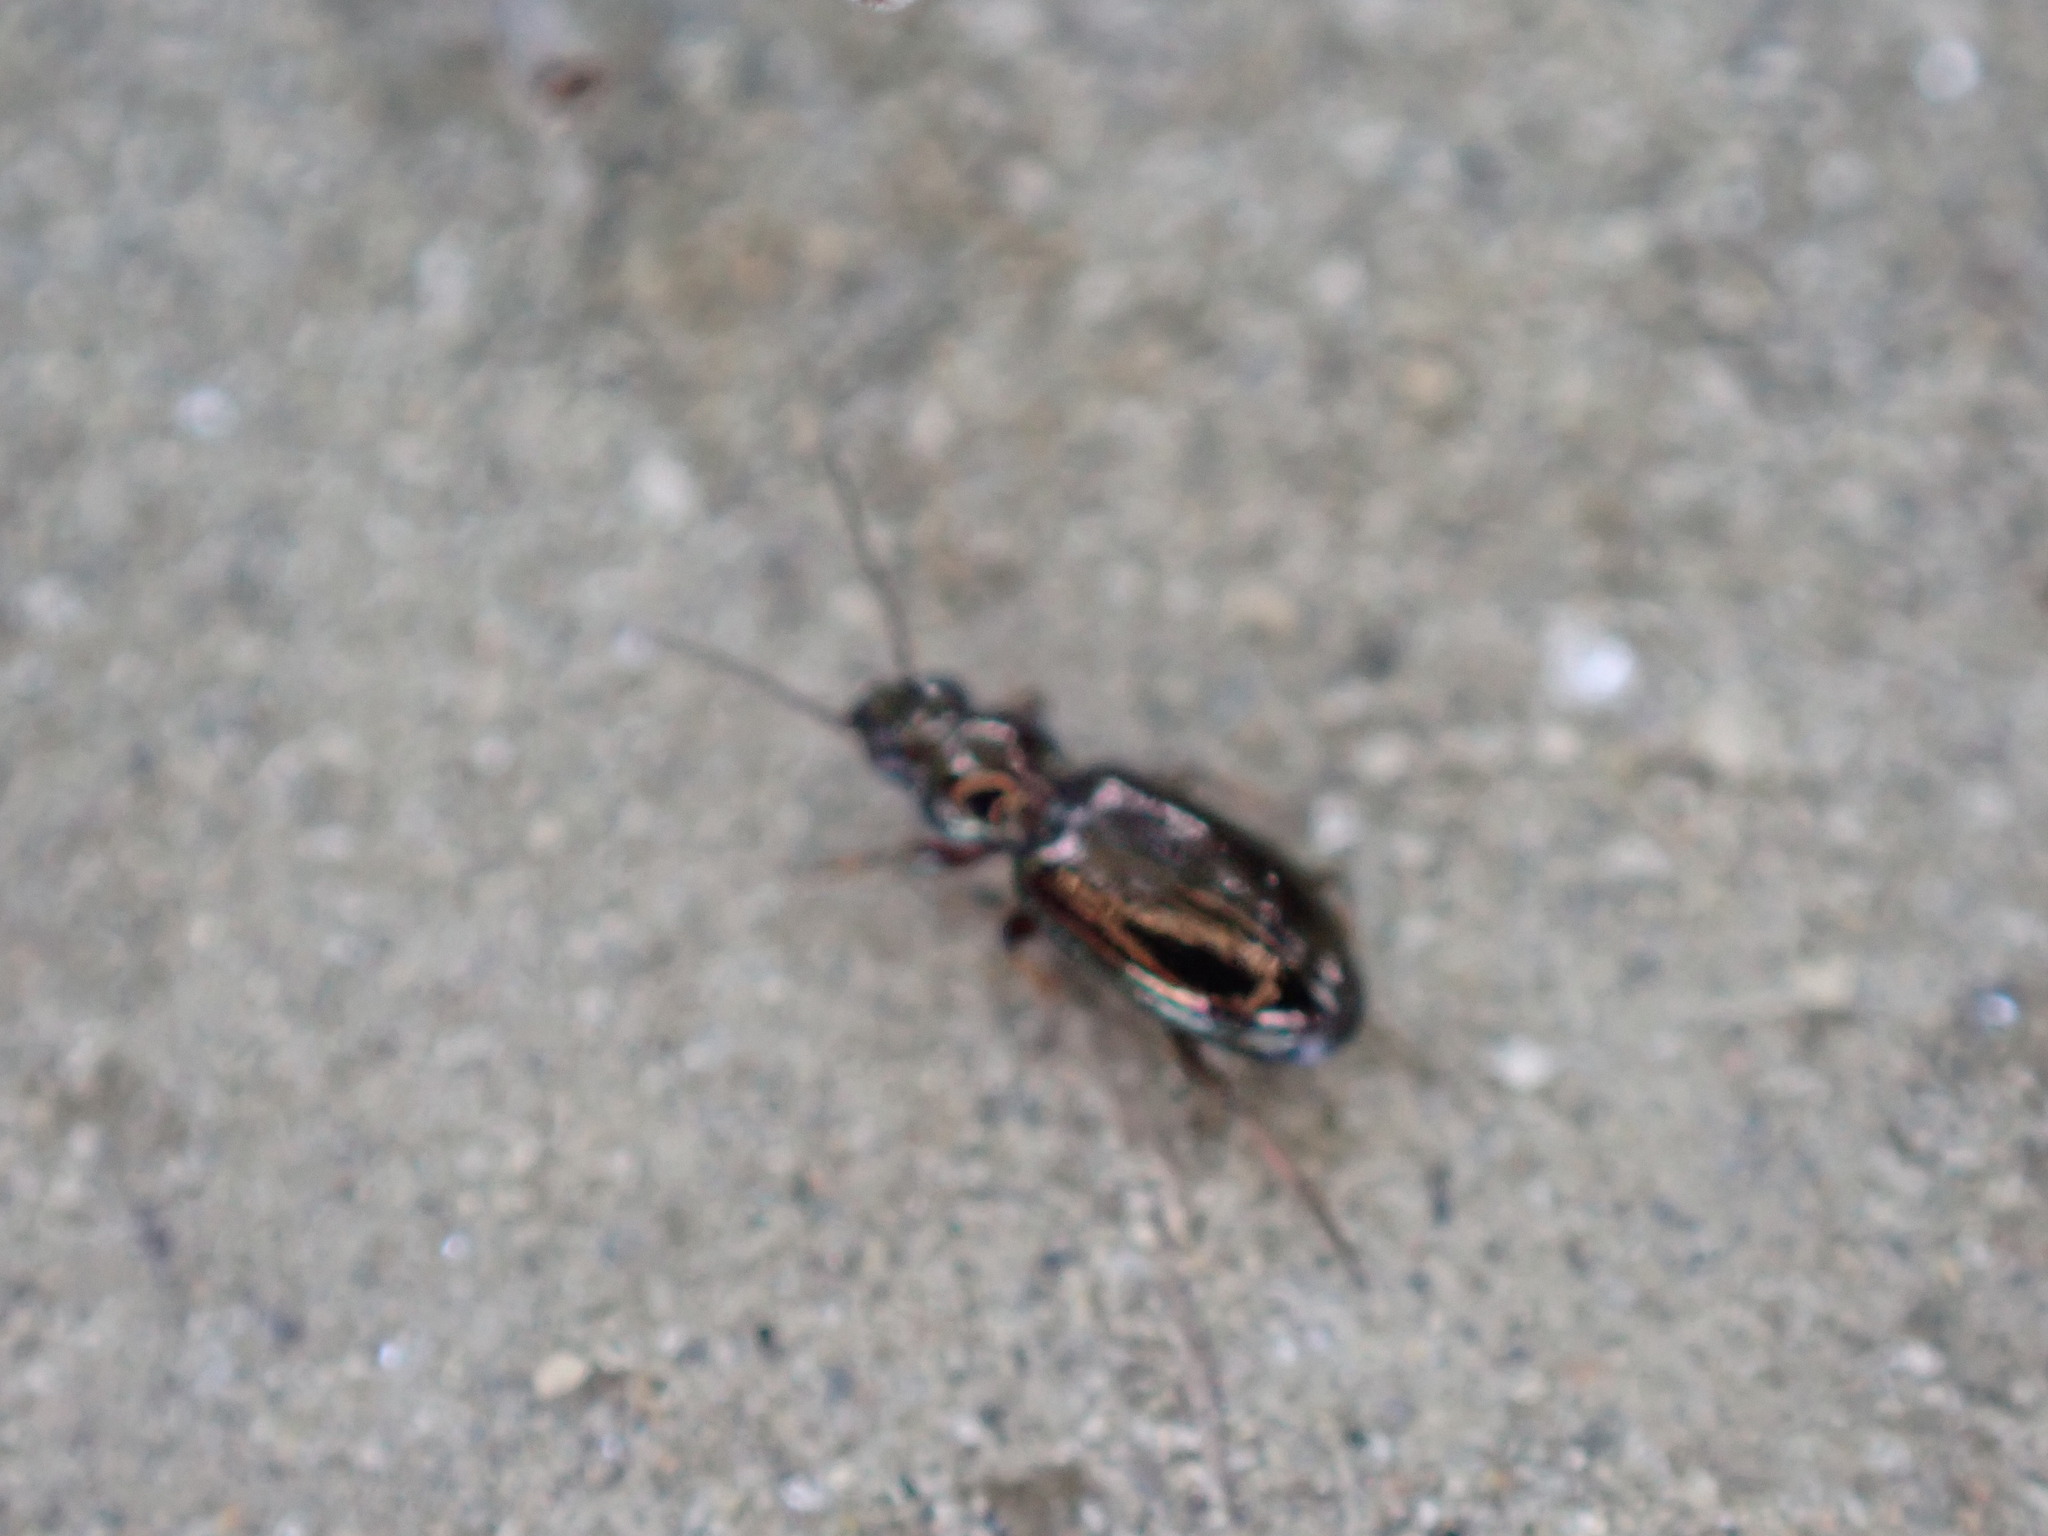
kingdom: Animalia
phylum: Arthropoda
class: Insecta
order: Coleoptera
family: Carabidae
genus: Bembidion
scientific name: Bembidion lampros
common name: Shiny riverbank ground beetle
